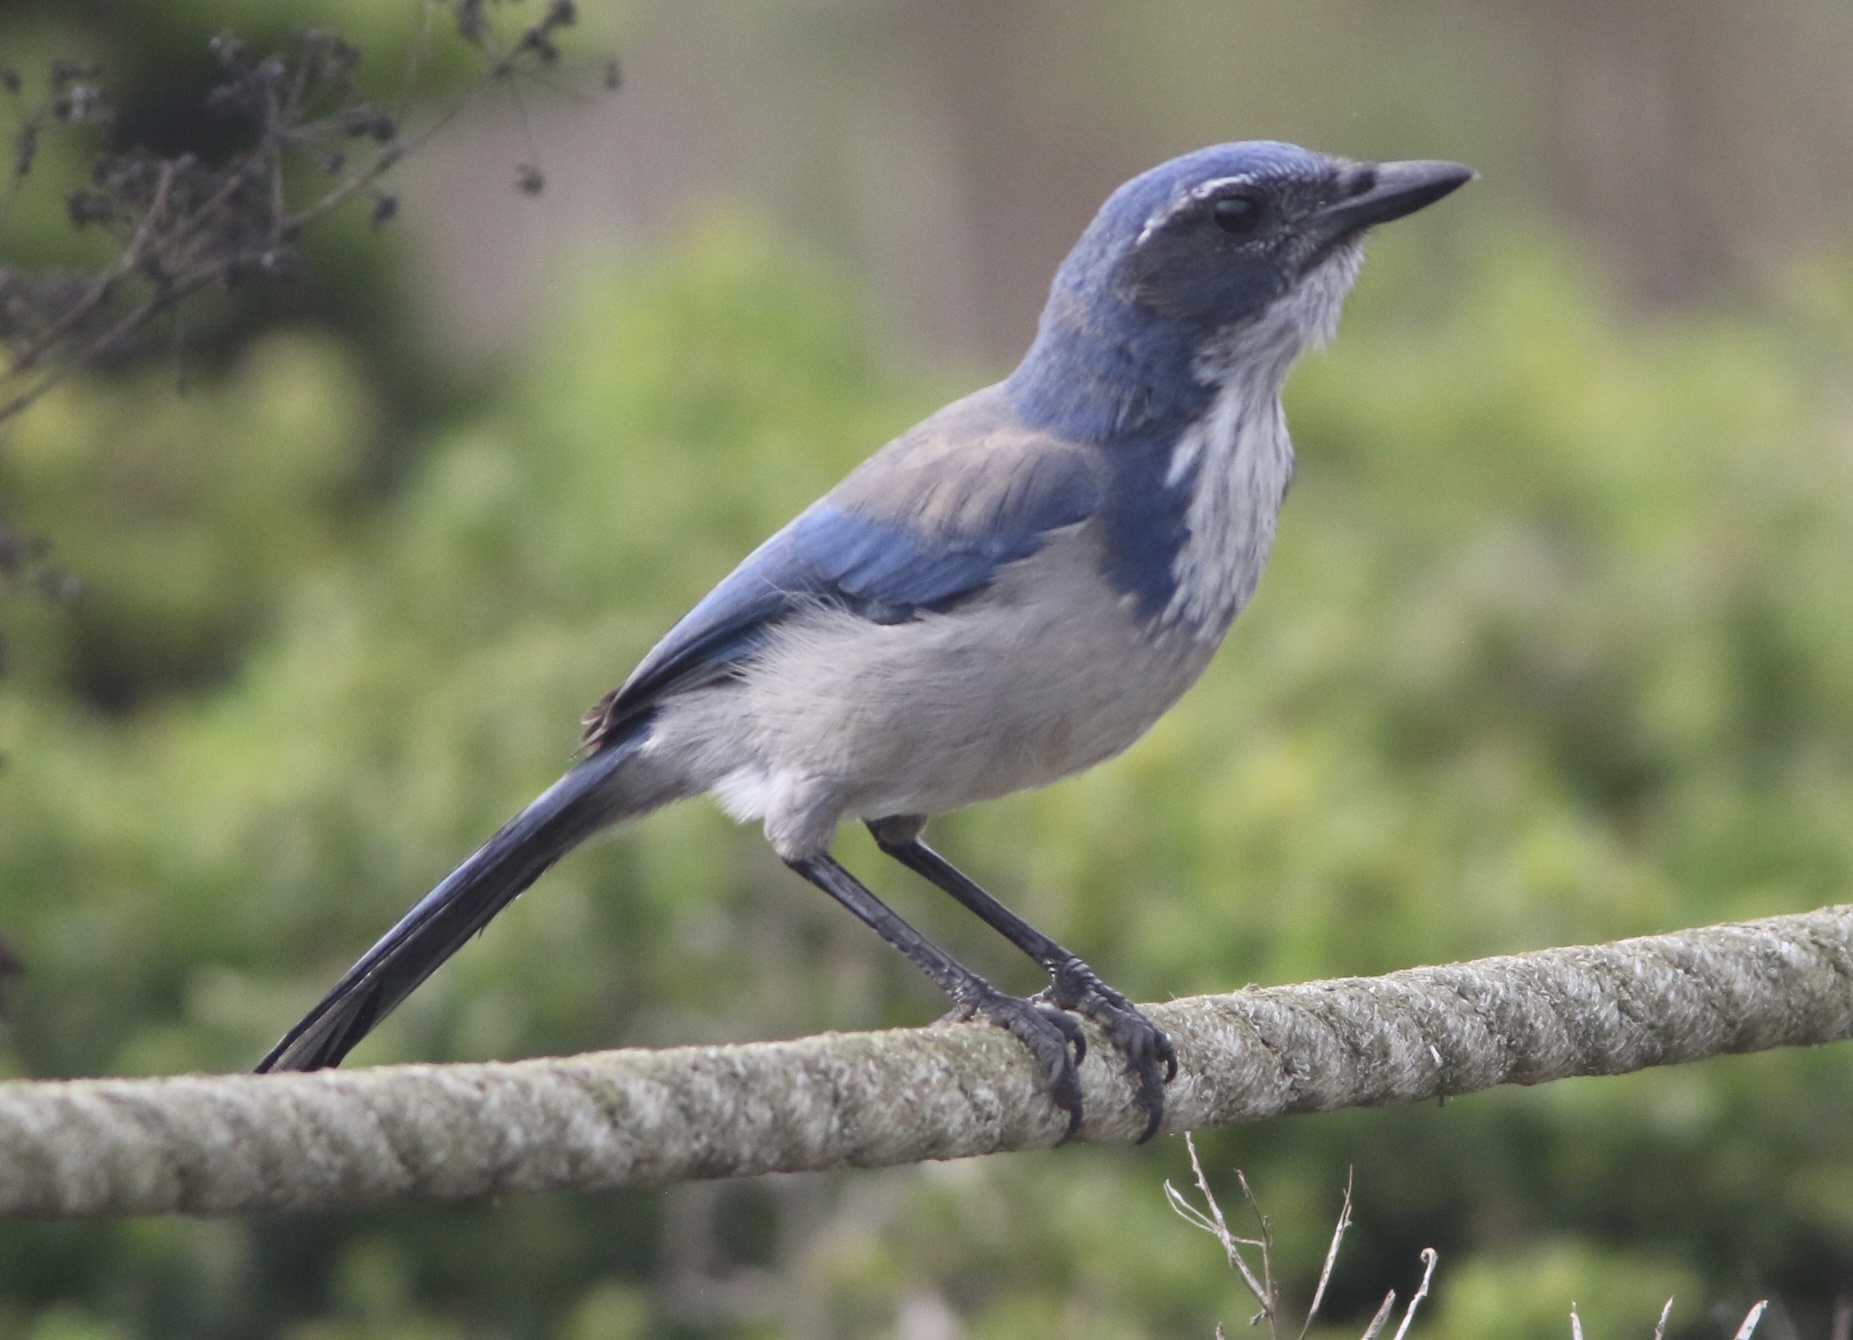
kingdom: Animalia
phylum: Chordata
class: Aves
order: Passeriformes
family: Corvidae
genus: Aphelocoma
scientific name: Aphelocoma californica
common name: California scrub-jay
